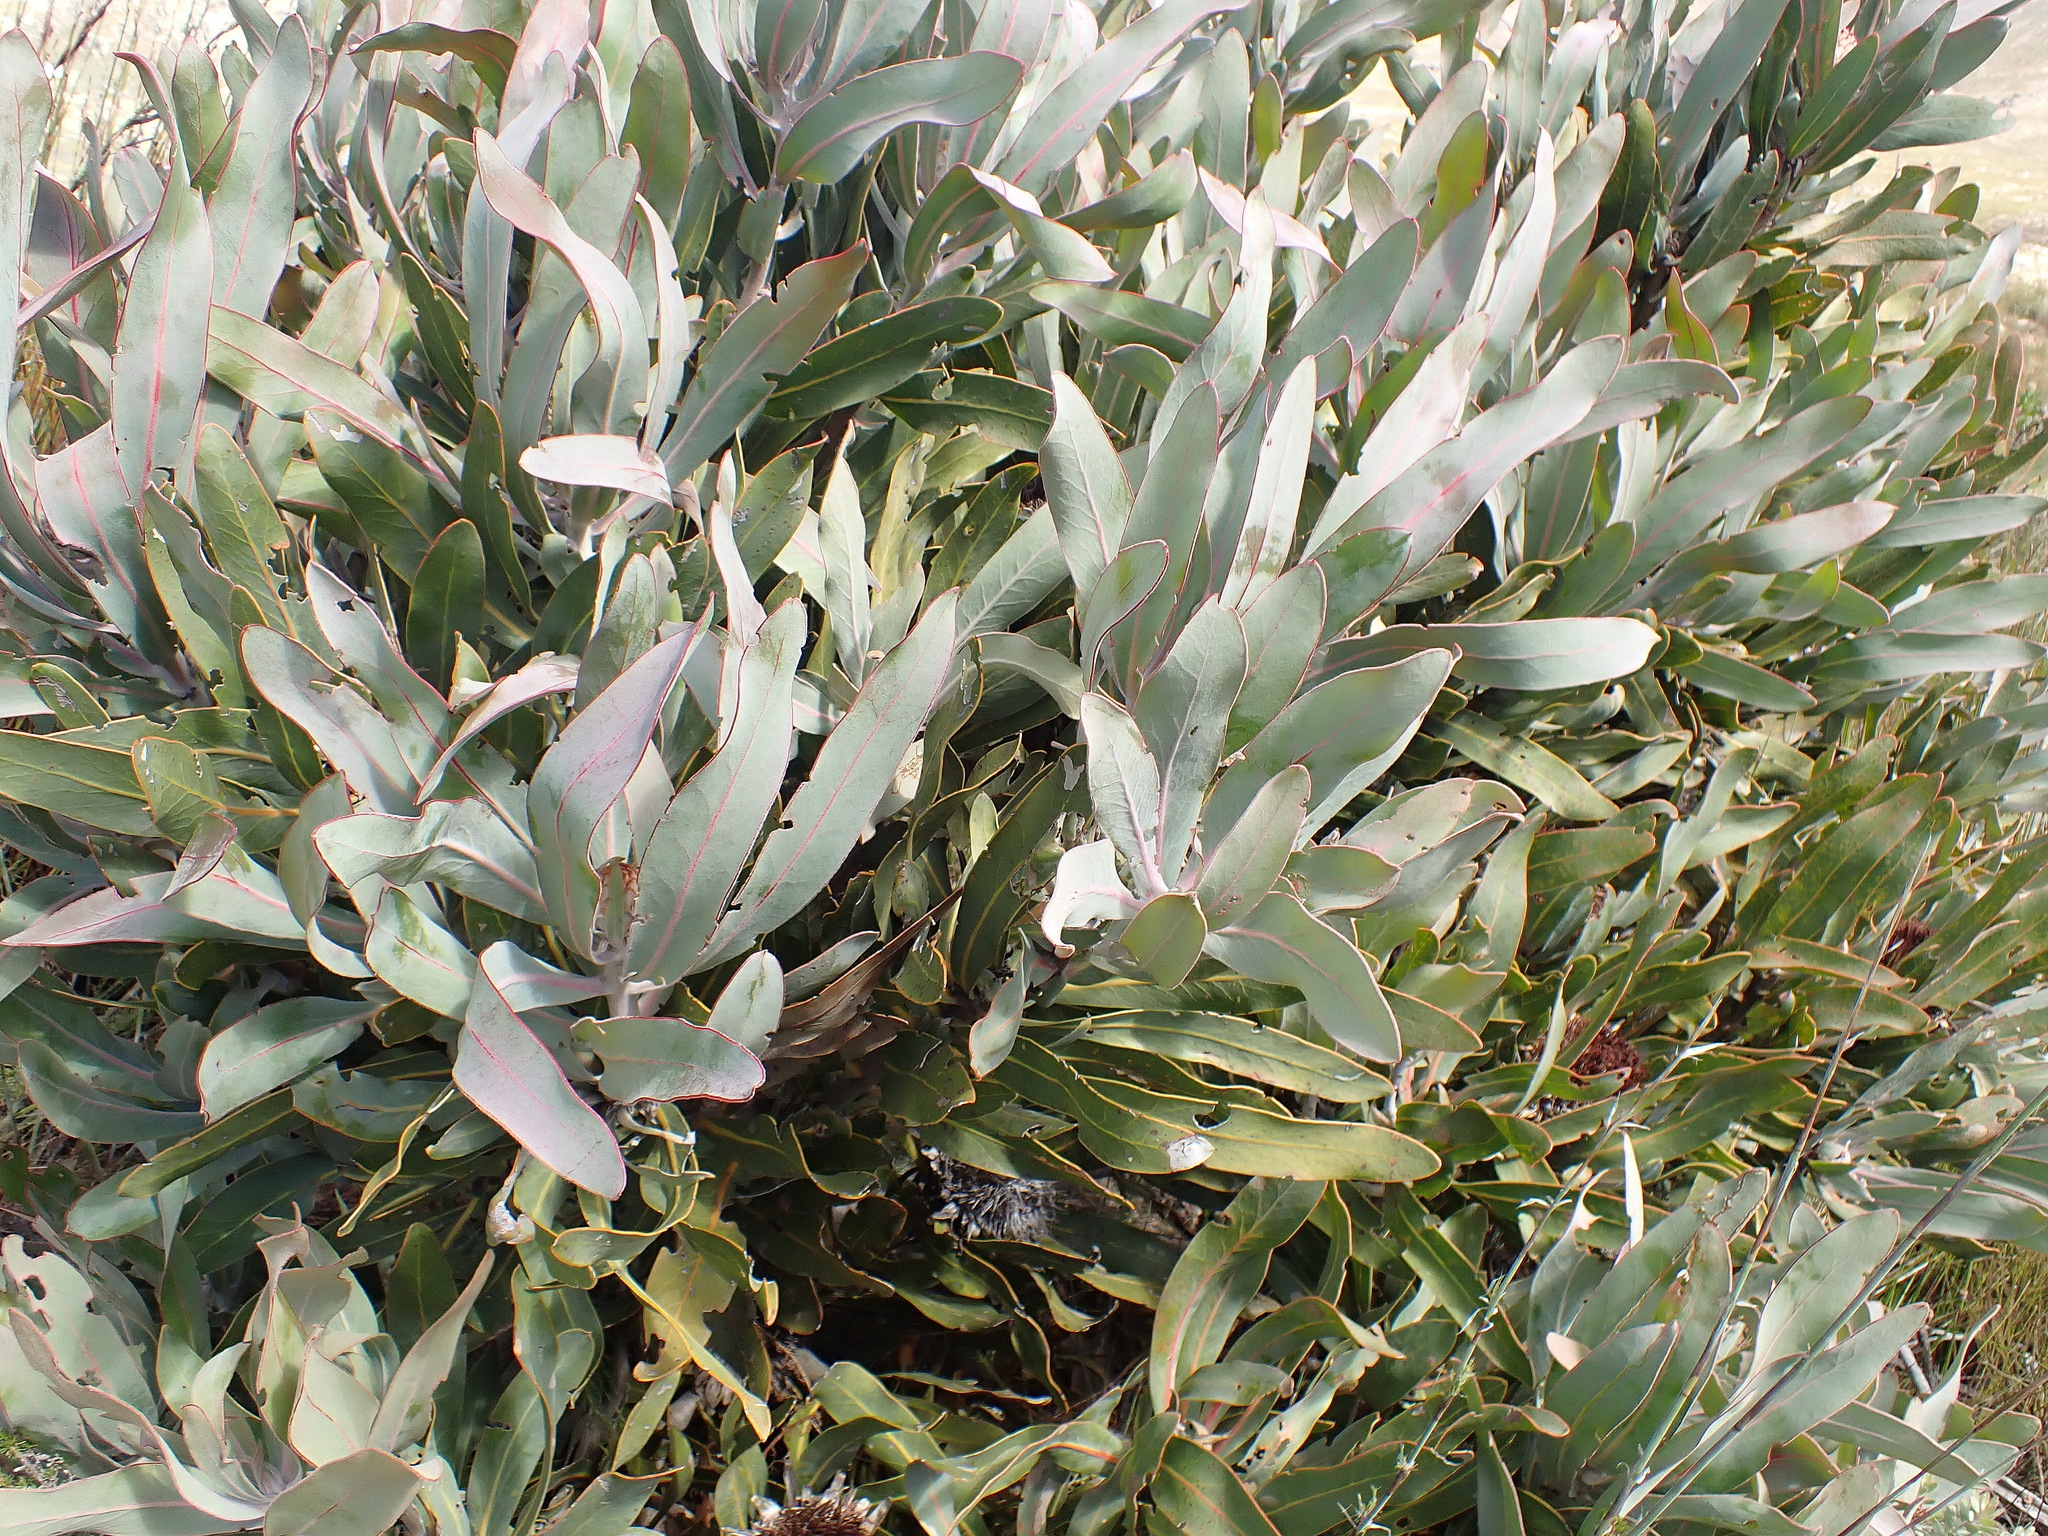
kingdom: Plantae
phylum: Tracheophyta
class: Magnoliopsida
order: Proteales
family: Proteaceae
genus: Protea
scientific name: Protea lorifolia
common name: Strap-leaved protea
